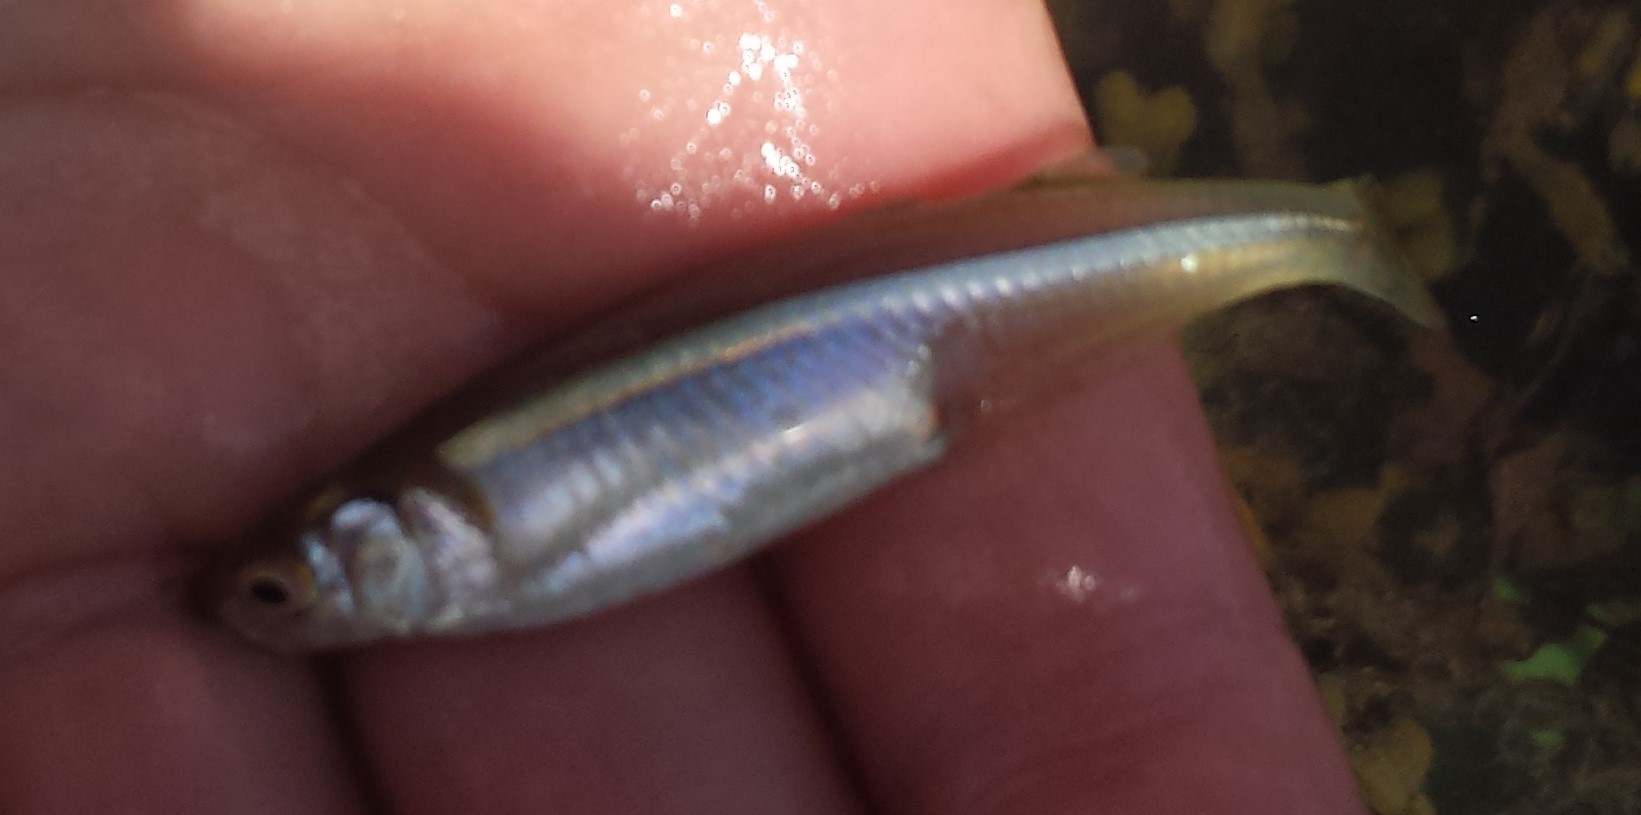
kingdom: Animalia
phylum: Chordata
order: Atheriniformes
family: Atherinopsidae
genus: Menidia
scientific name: Menidia menidia
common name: Atlantic silverside
